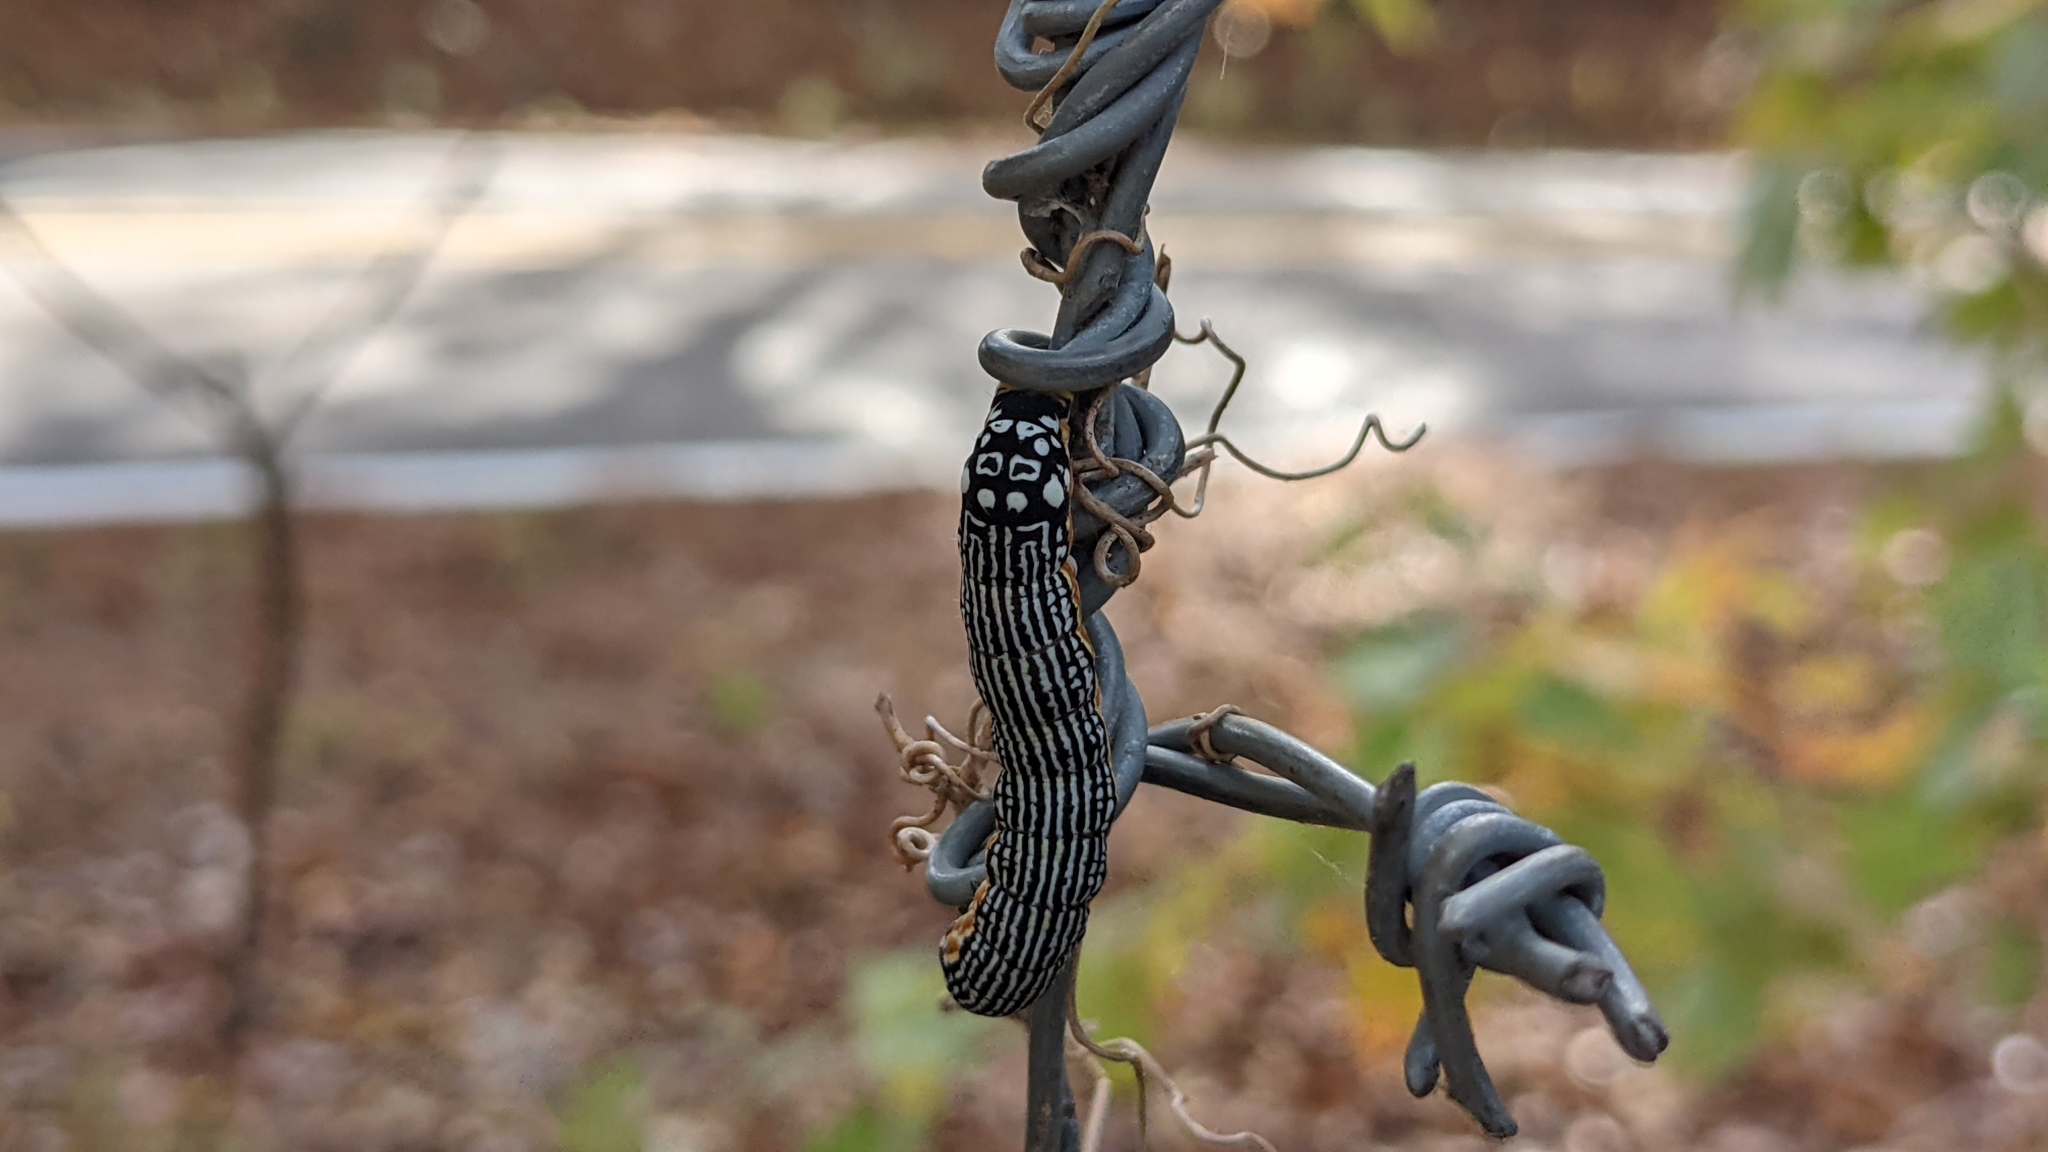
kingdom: Animalia
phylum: Arthropoda
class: Insecta
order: Lepidoptera
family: Noctuidae
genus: Phosphila
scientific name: Phosphila turbulenta
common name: Turbulent phosphila moth
